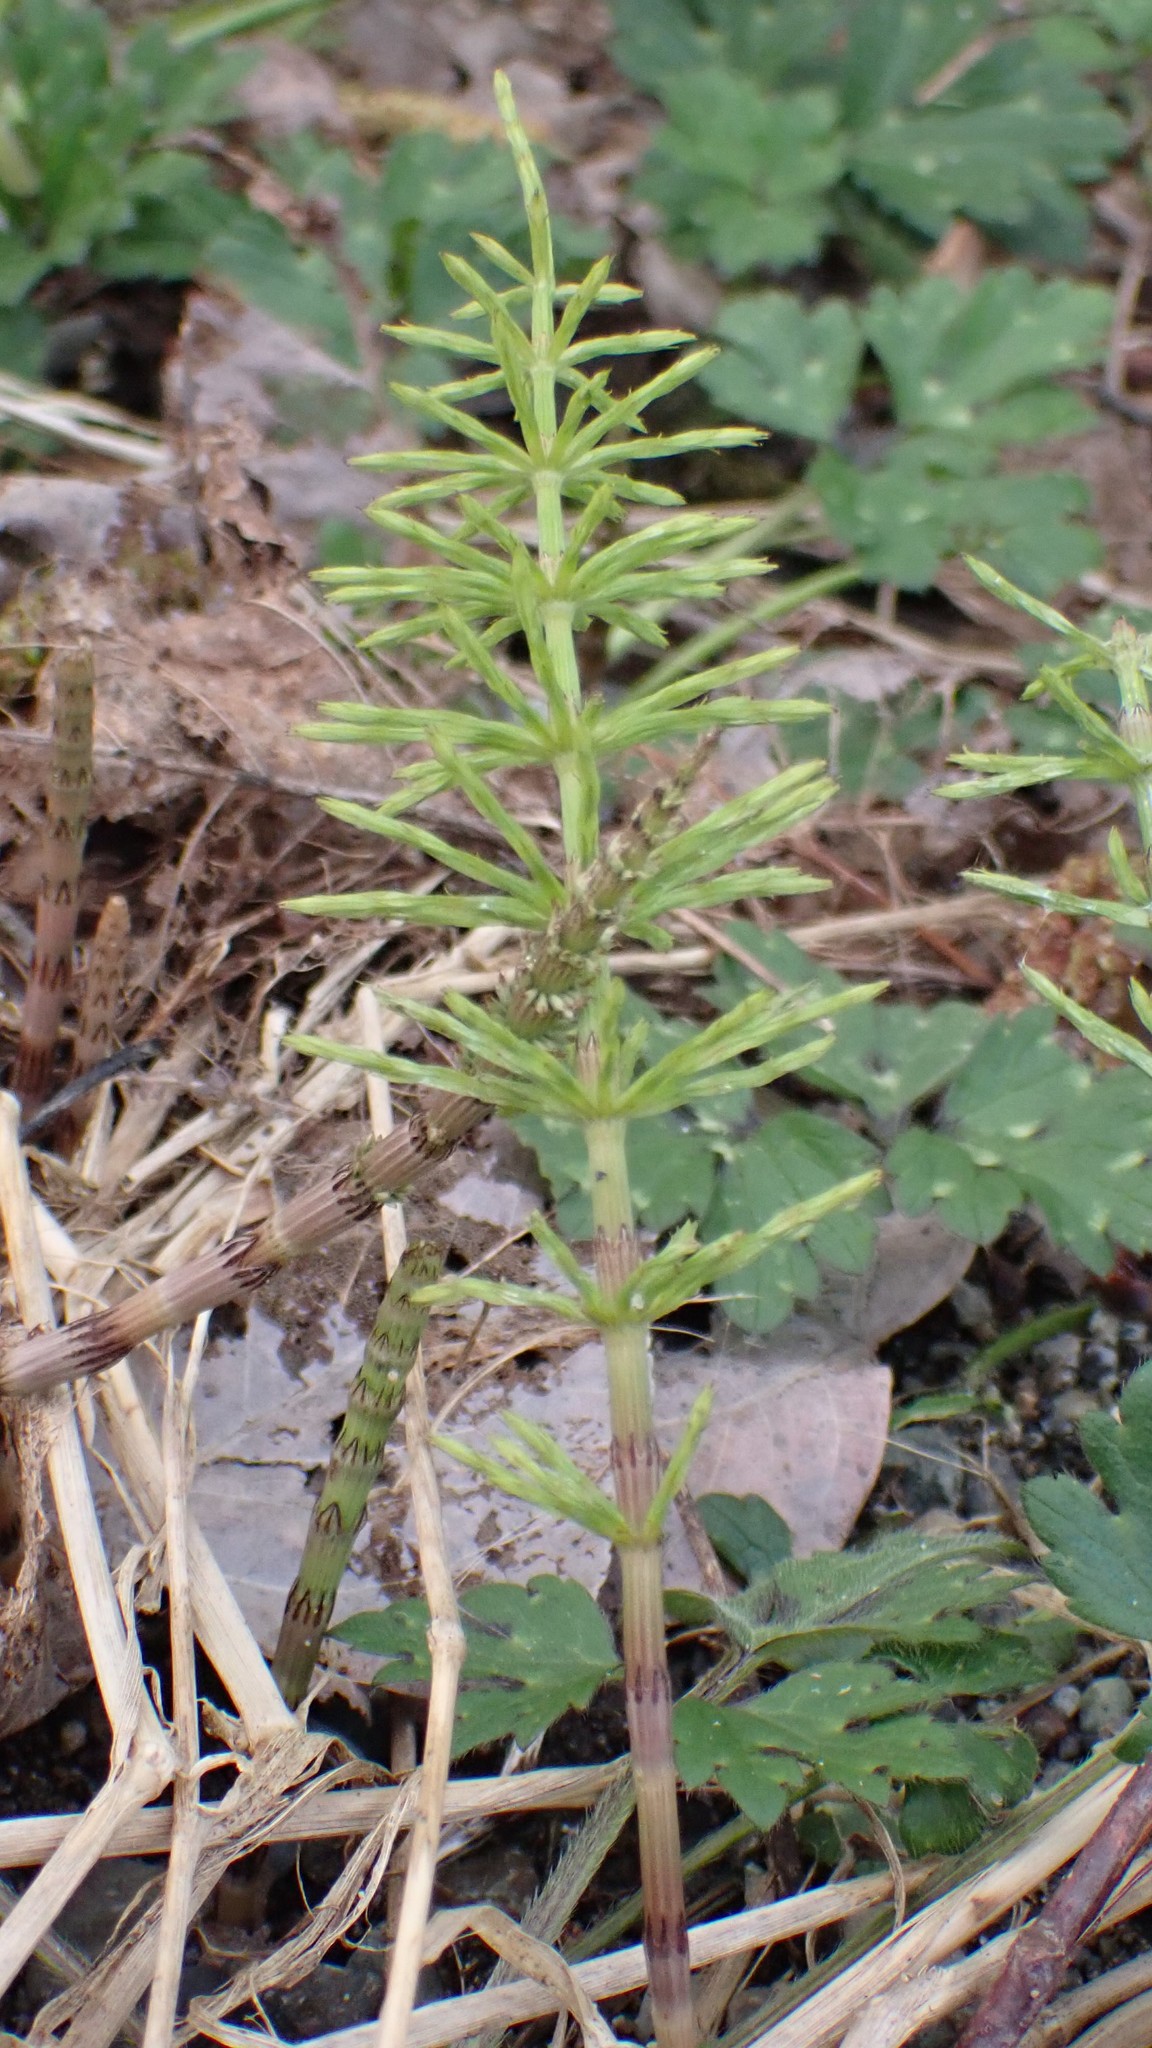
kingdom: Plantae
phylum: Tracheophyta
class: Polypodiopsida
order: Equisetales
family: Equisetaceae
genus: Equisetum
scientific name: Equisetum arvense
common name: Field horsetail
